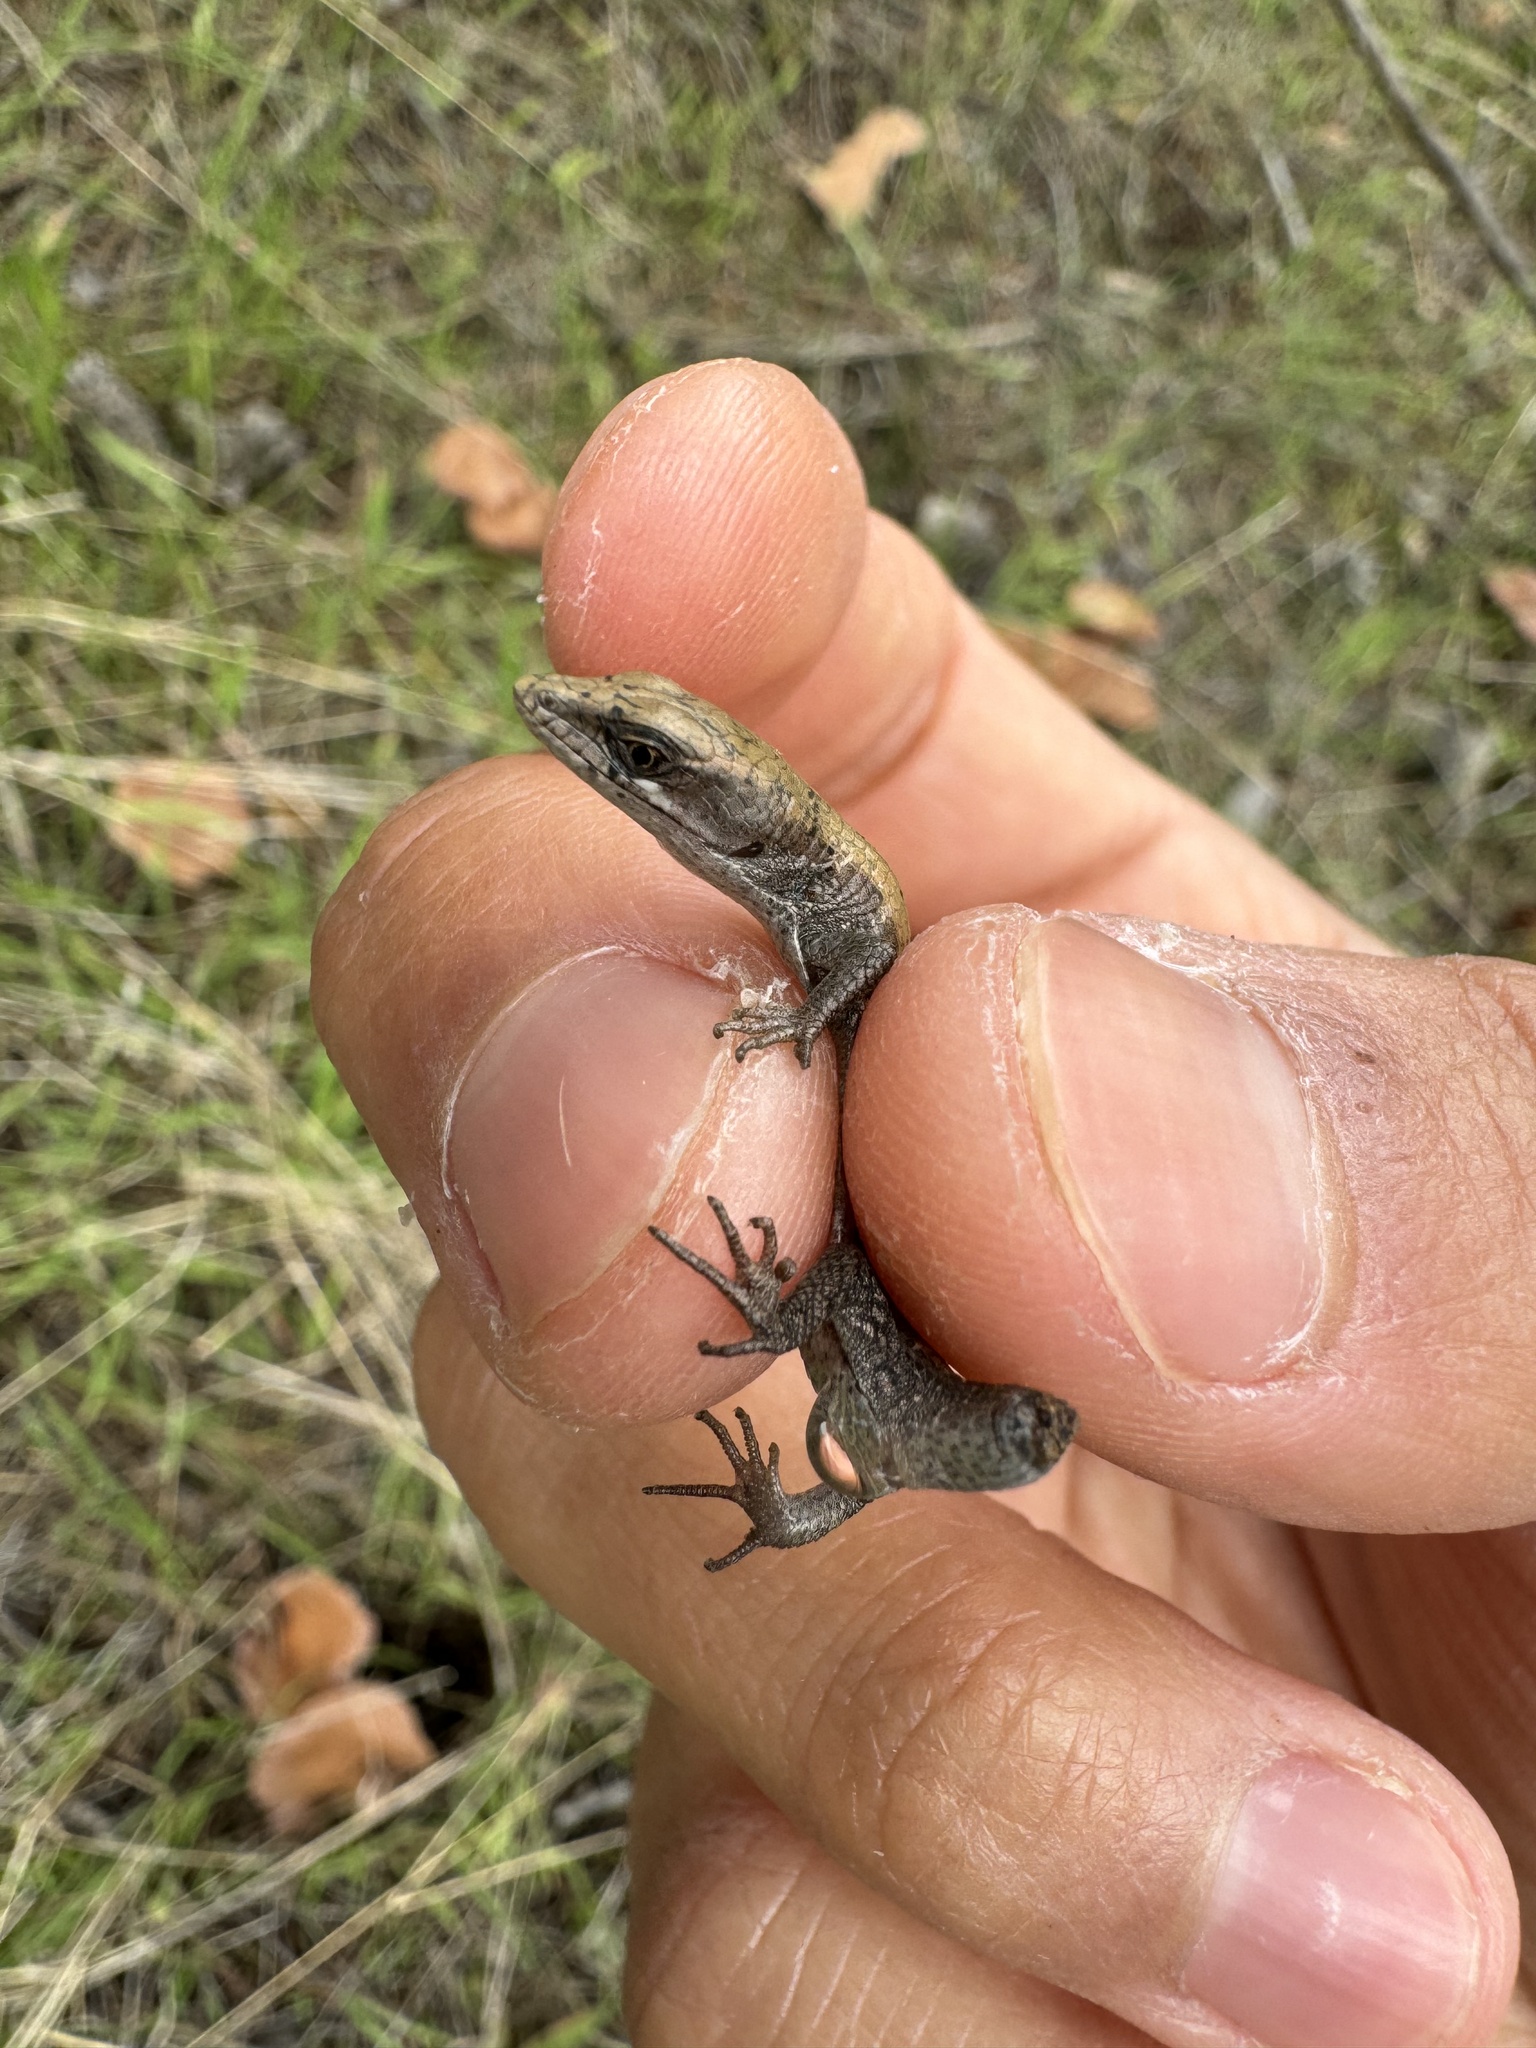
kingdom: Animalia
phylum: Chordata
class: Squamata
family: Anguidae
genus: Elgaria
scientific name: Elgaria multicarinata
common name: Southern alligator lizard
